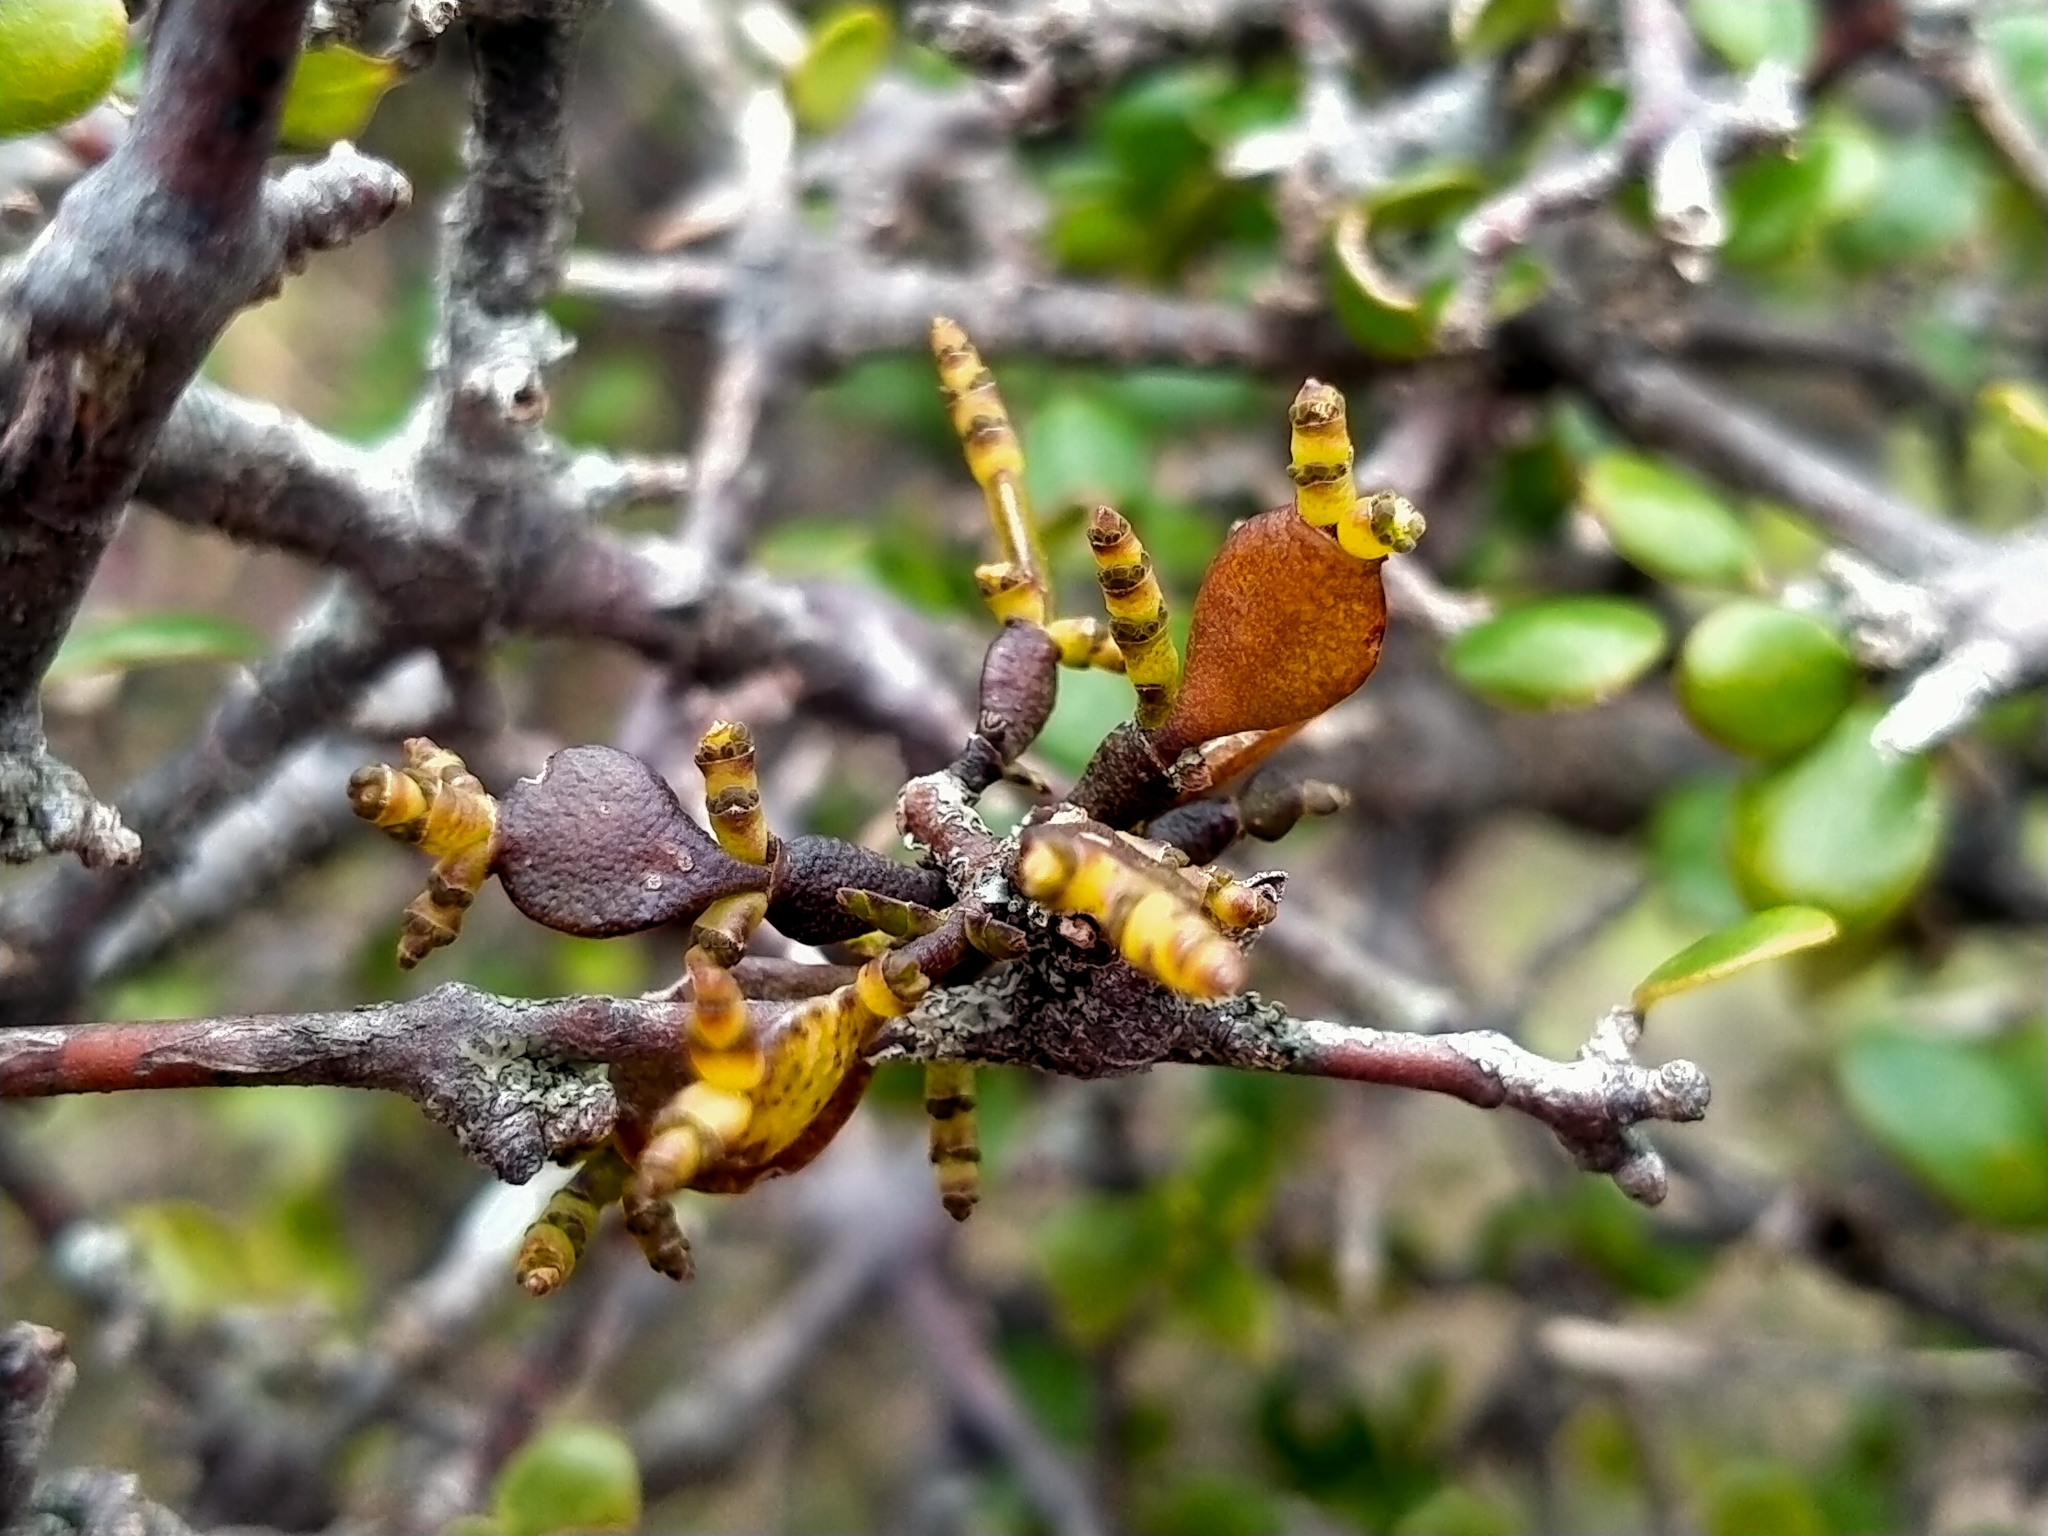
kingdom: Plantae
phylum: Tracheophyta
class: Magnoliopsida
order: Santalales
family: Viscaceae
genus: Korthalsella
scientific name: Korthalsella lindsayi
